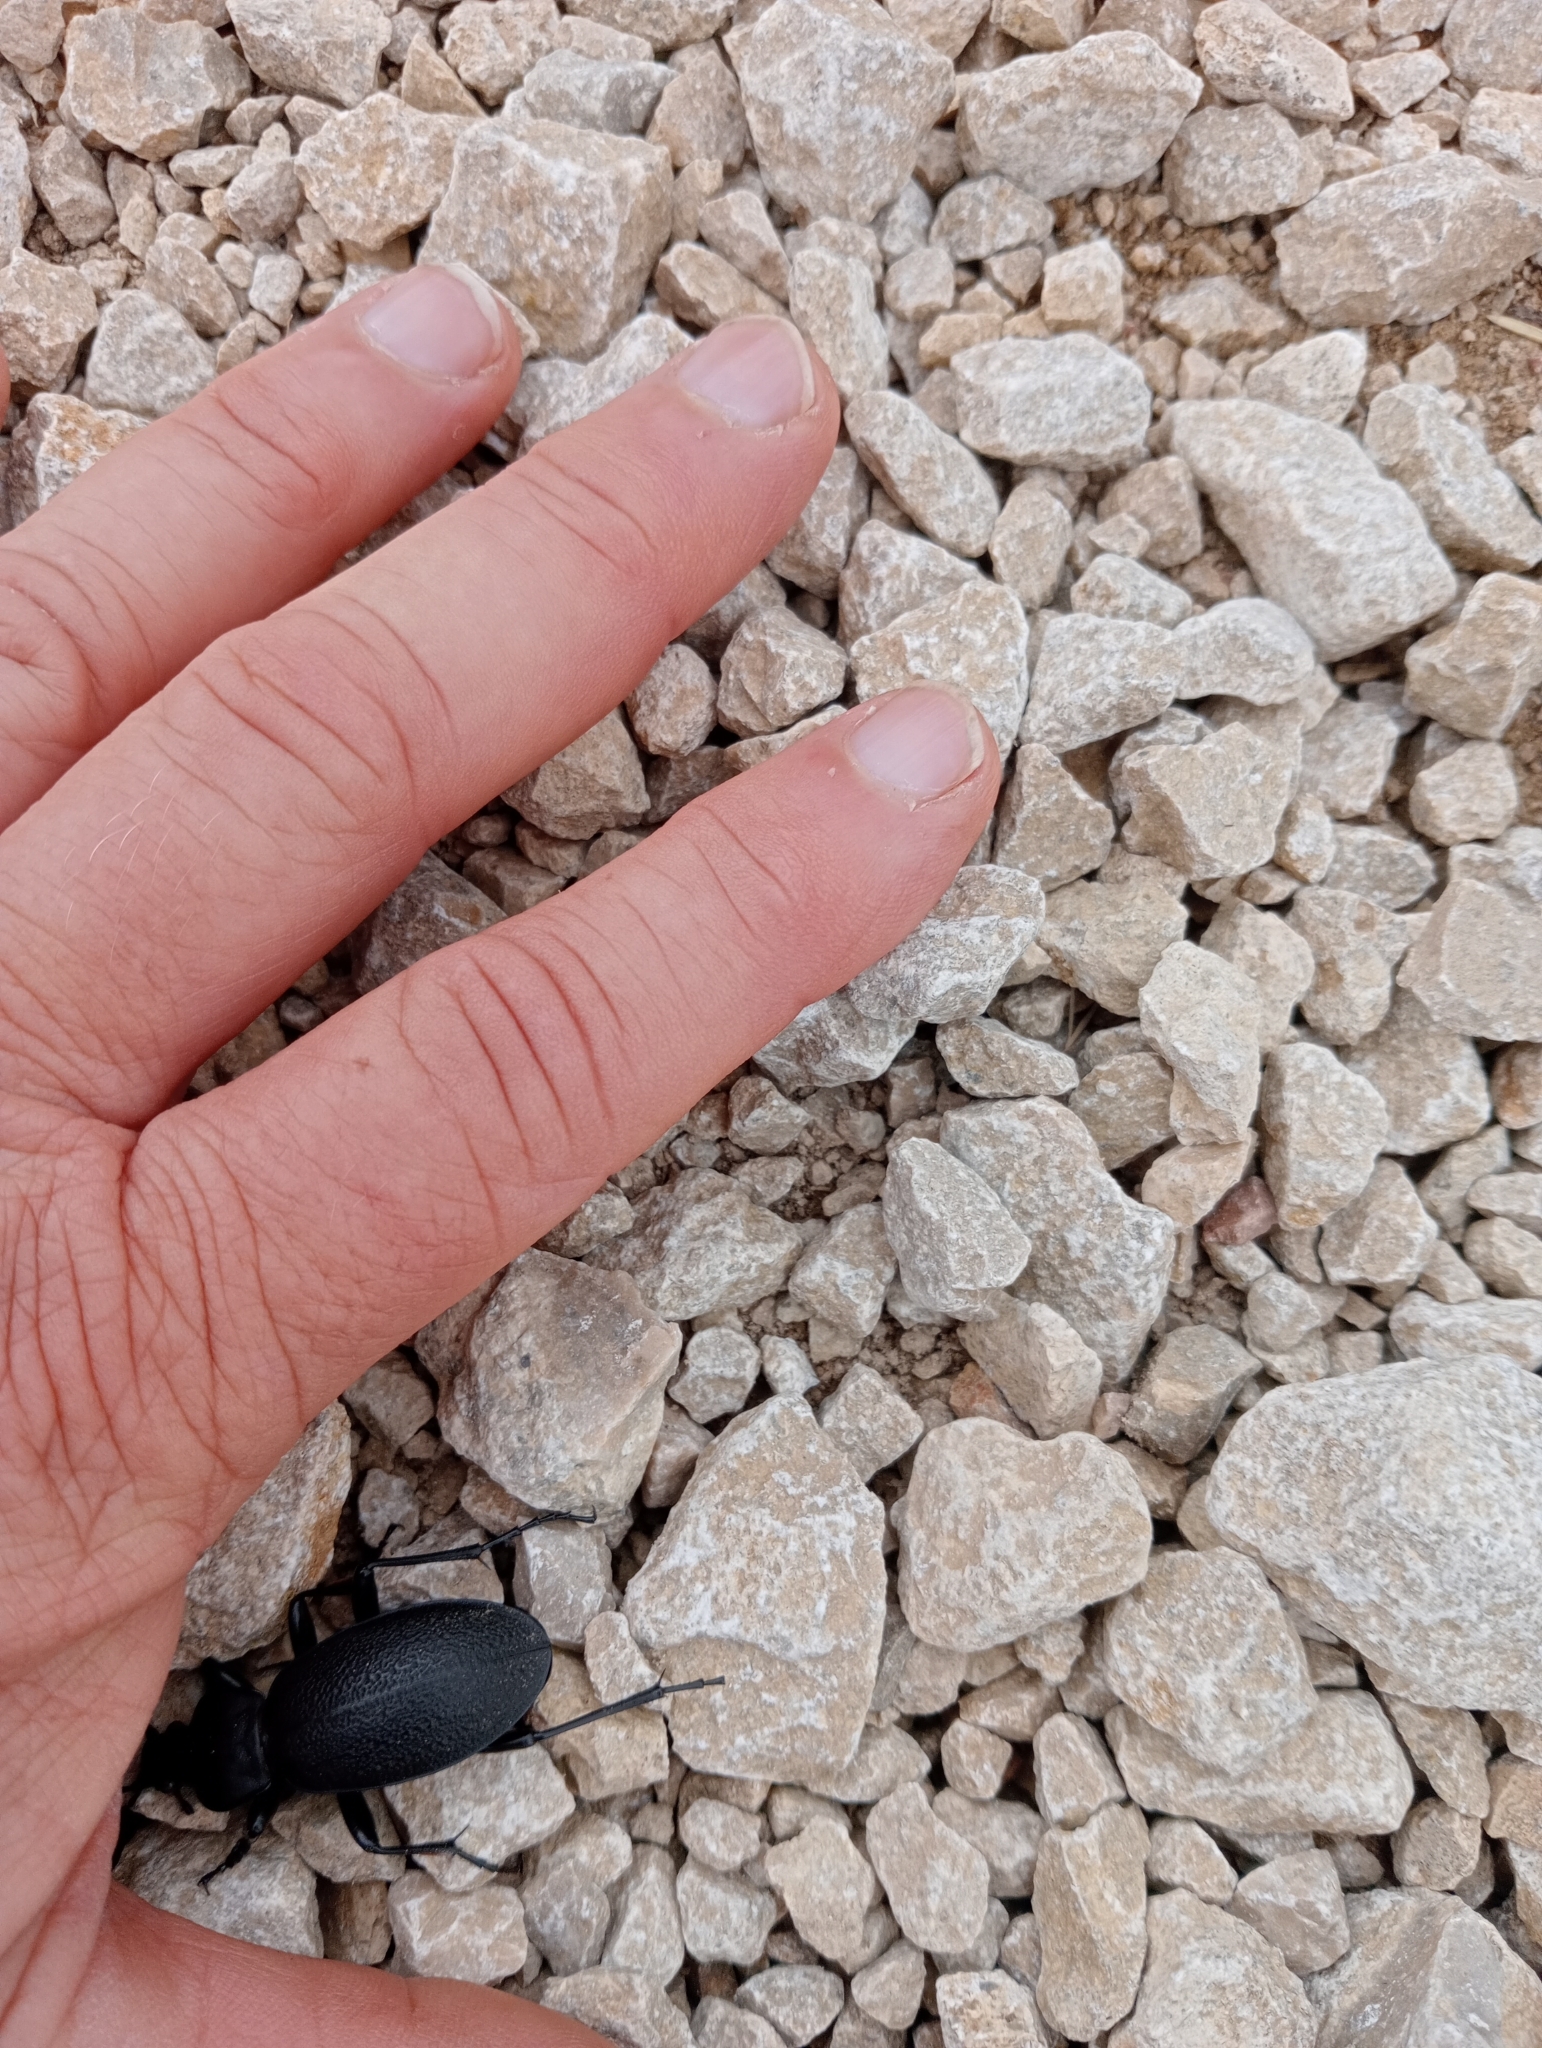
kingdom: Animalia
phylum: Arthropoda
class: Insecta
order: Coleoptera
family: Carabidae
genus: Carabus
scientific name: Carabus coriaceus
